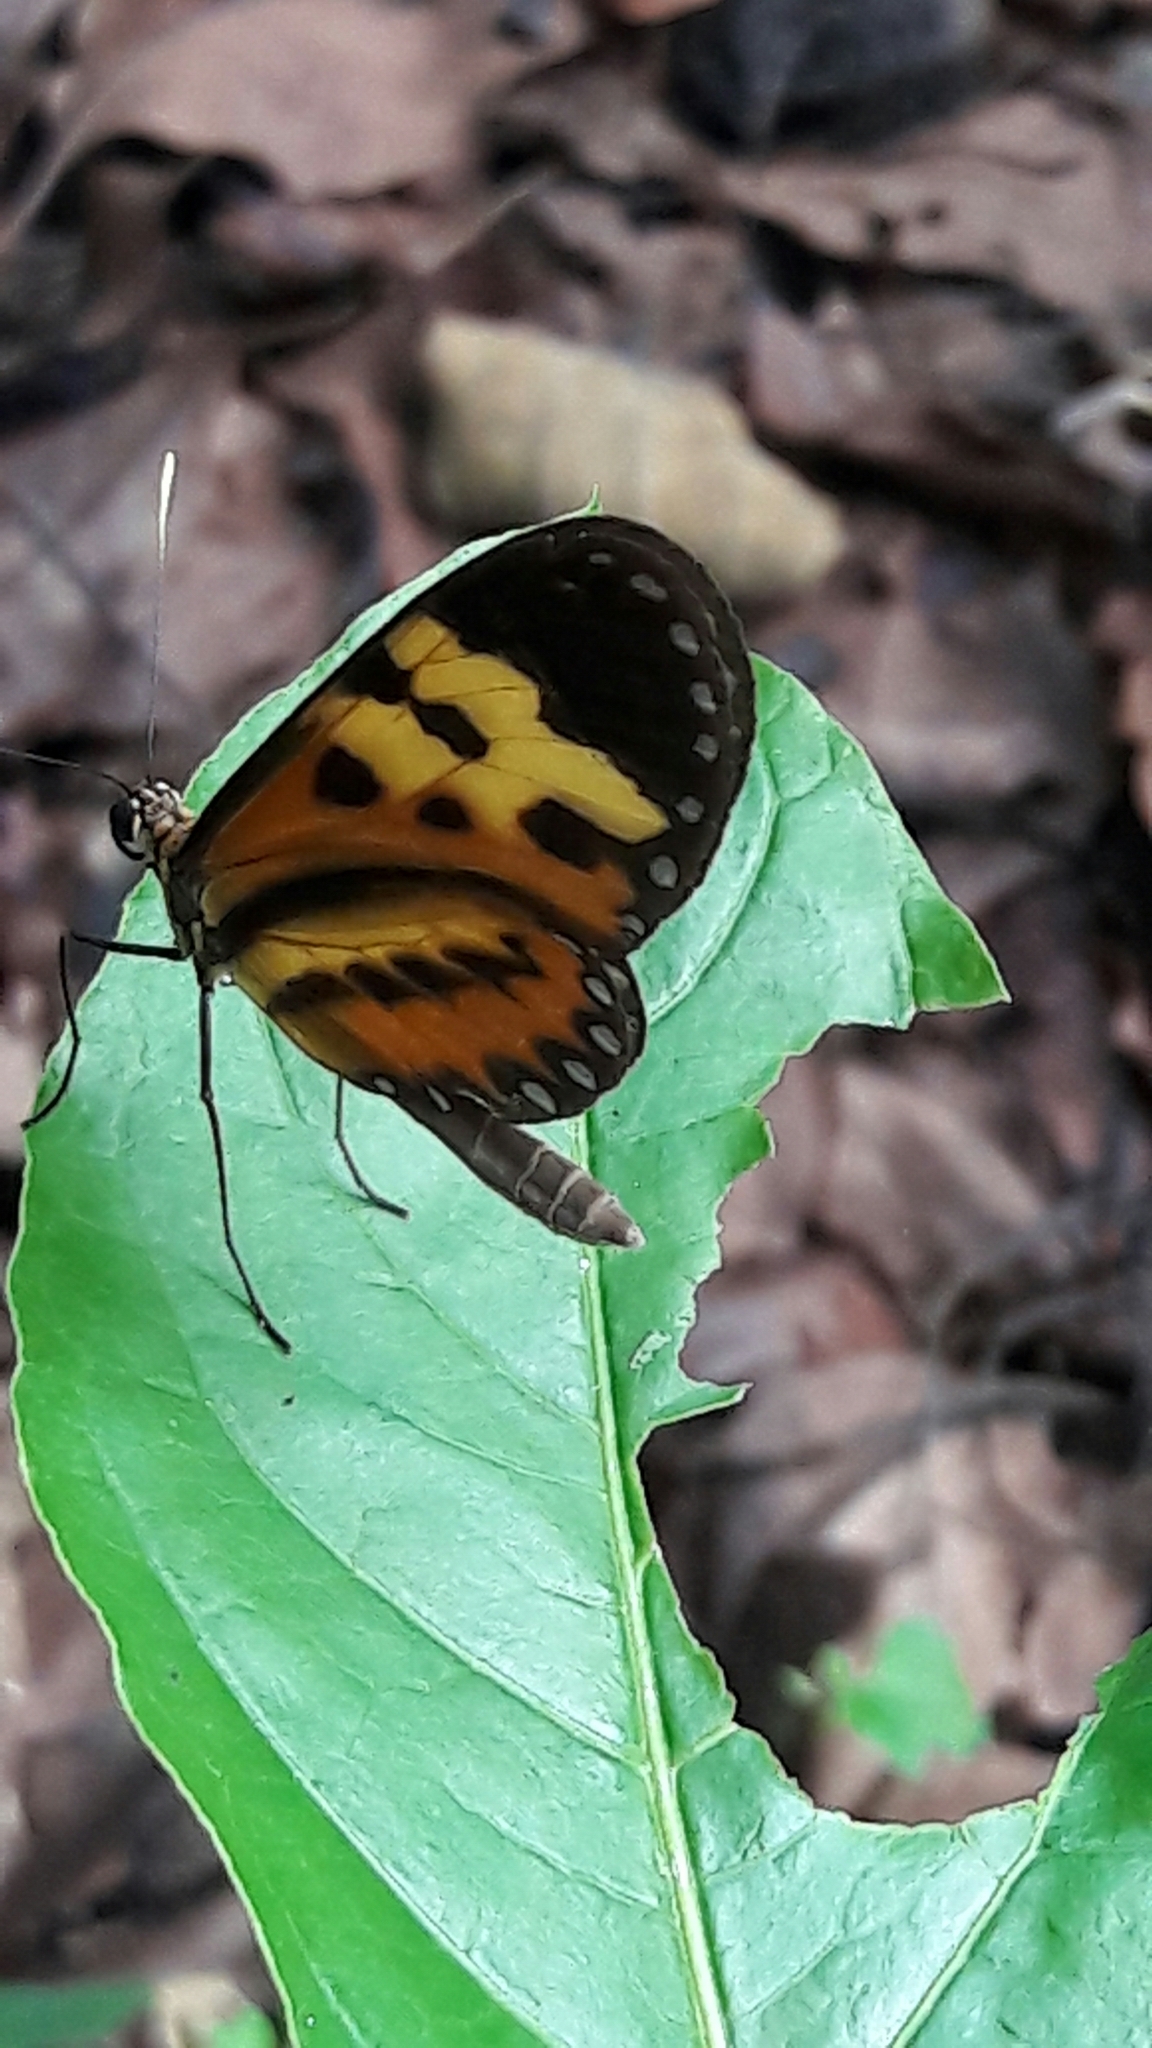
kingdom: Animalia
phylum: Arthropoda
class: Insecta
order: Lepidoptera
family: Nymphalidae
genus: Mechanitis
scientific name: Mechanitis polymnia
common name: Disturbed tigerwing
